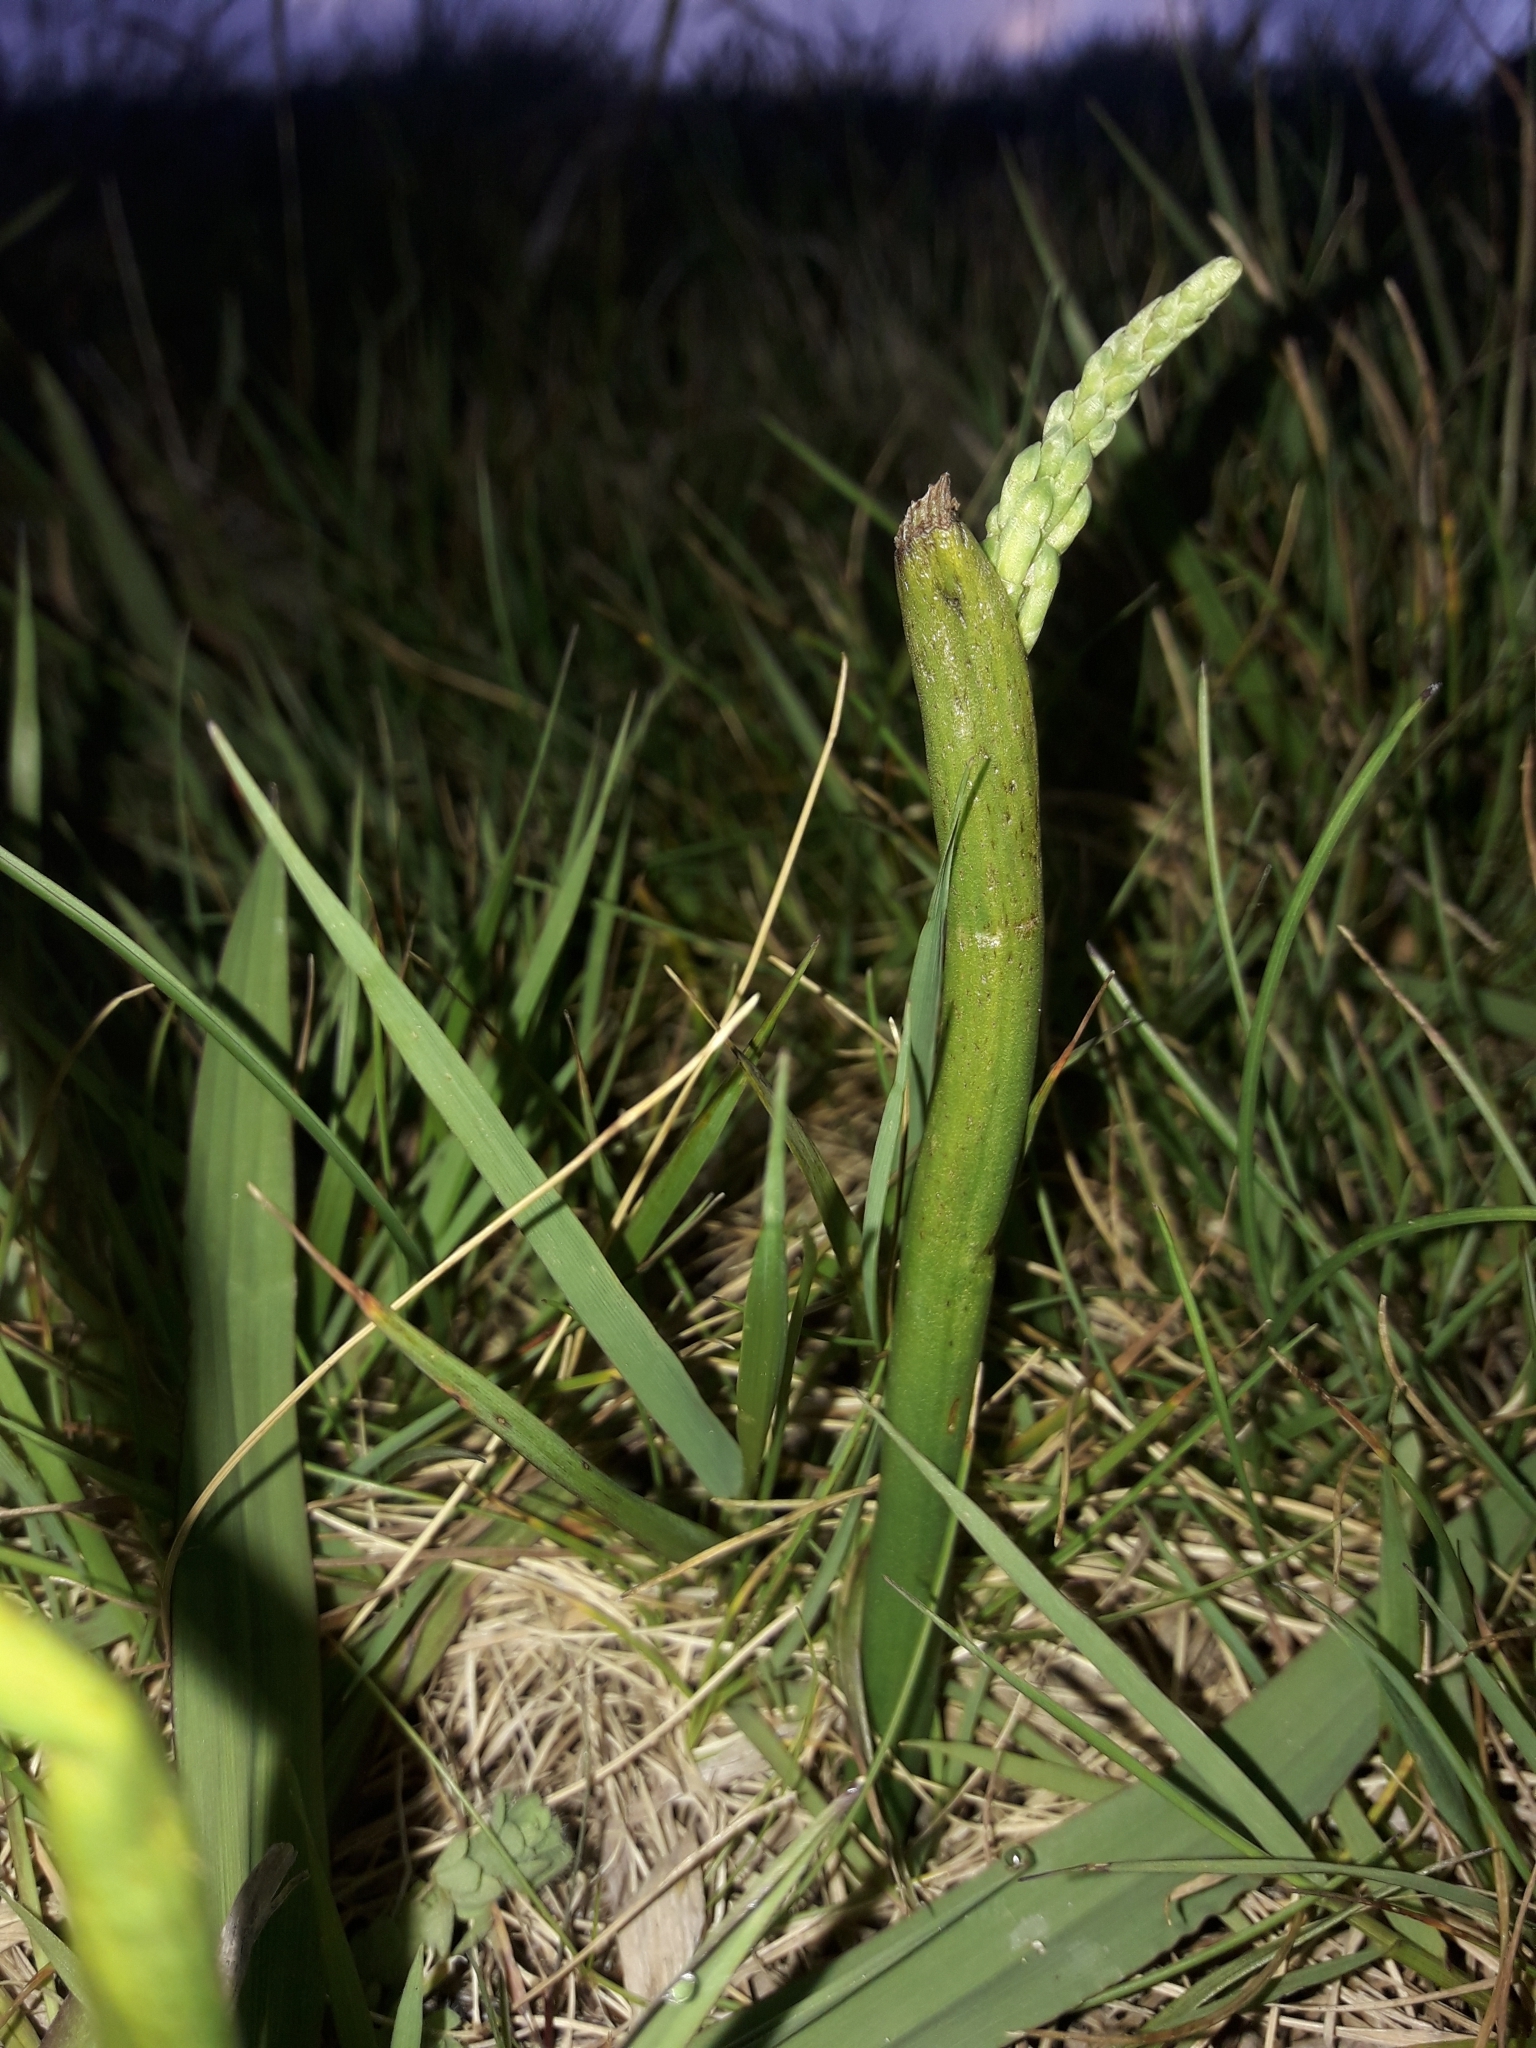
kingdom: Plantae
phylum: Tracheophyta
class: Liliopsida
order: Asparagales
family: Orchidaceae
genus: Microtis
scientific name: Microtis unifolia
